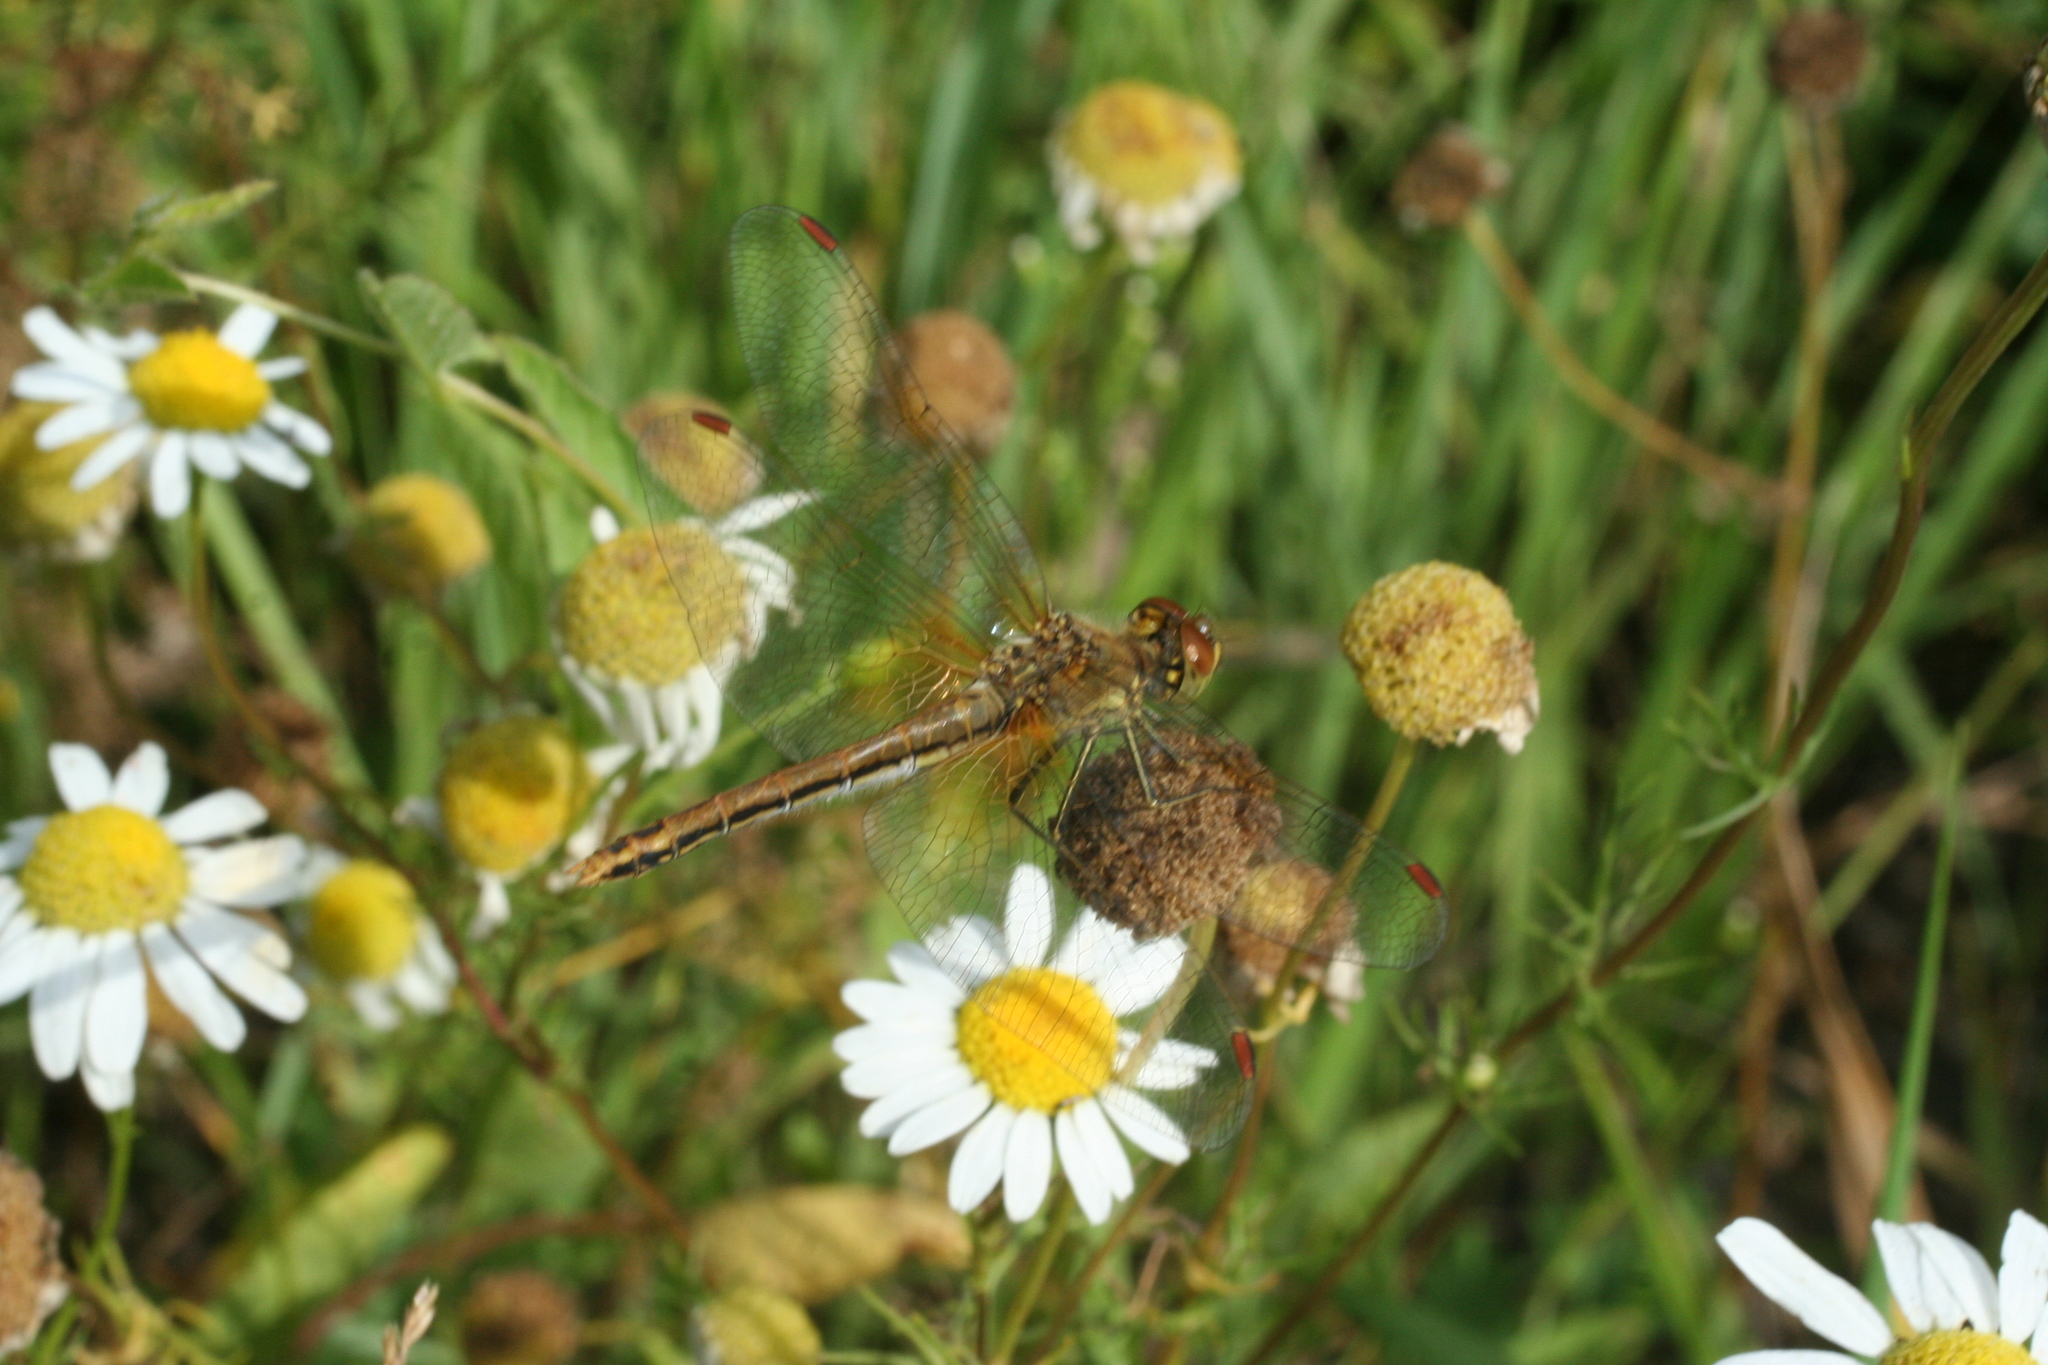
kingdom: Animalia
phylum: Arthropoda
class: Insecta
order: Odonata
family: Libellulidae
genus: Sympetrum
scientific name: Sympetrum flaveolum
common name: Yellow-winged darter
